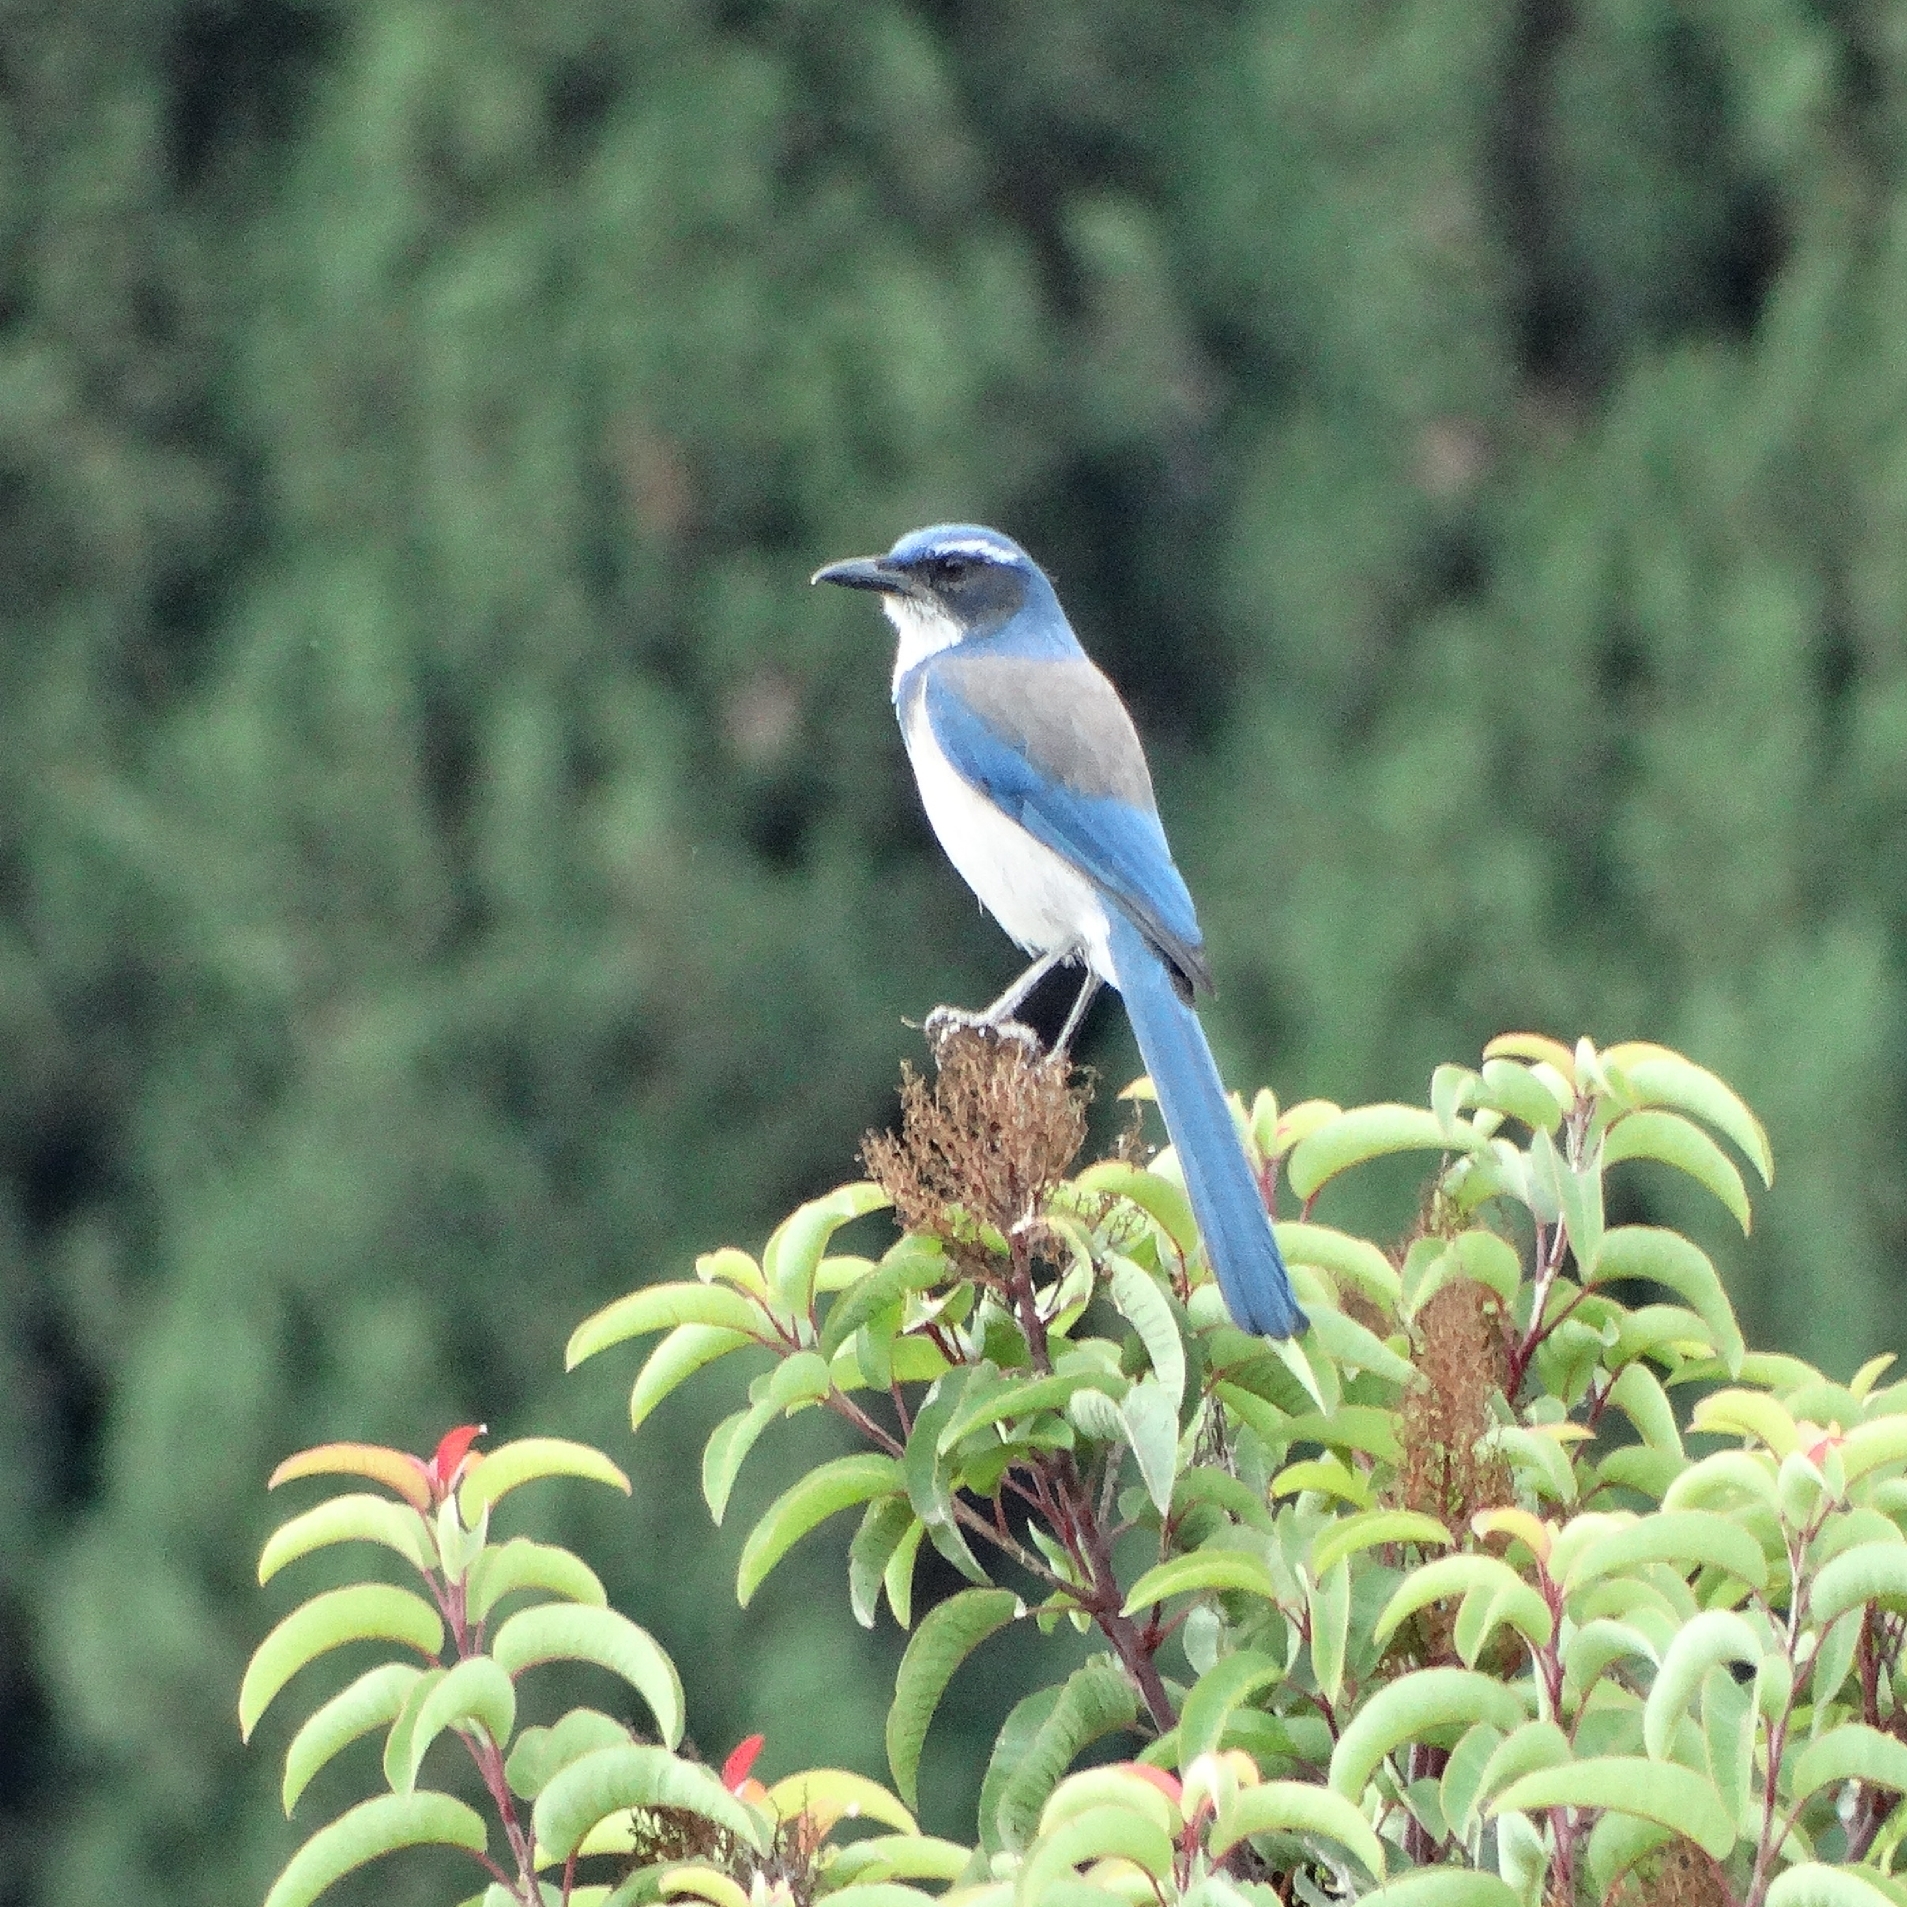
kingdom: Animalia
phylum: Chordata
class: Aves
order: Passeriformes
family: Corvidae
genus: Aphelocoma
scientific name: Aphelocoma californica
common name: California scrub-jay
